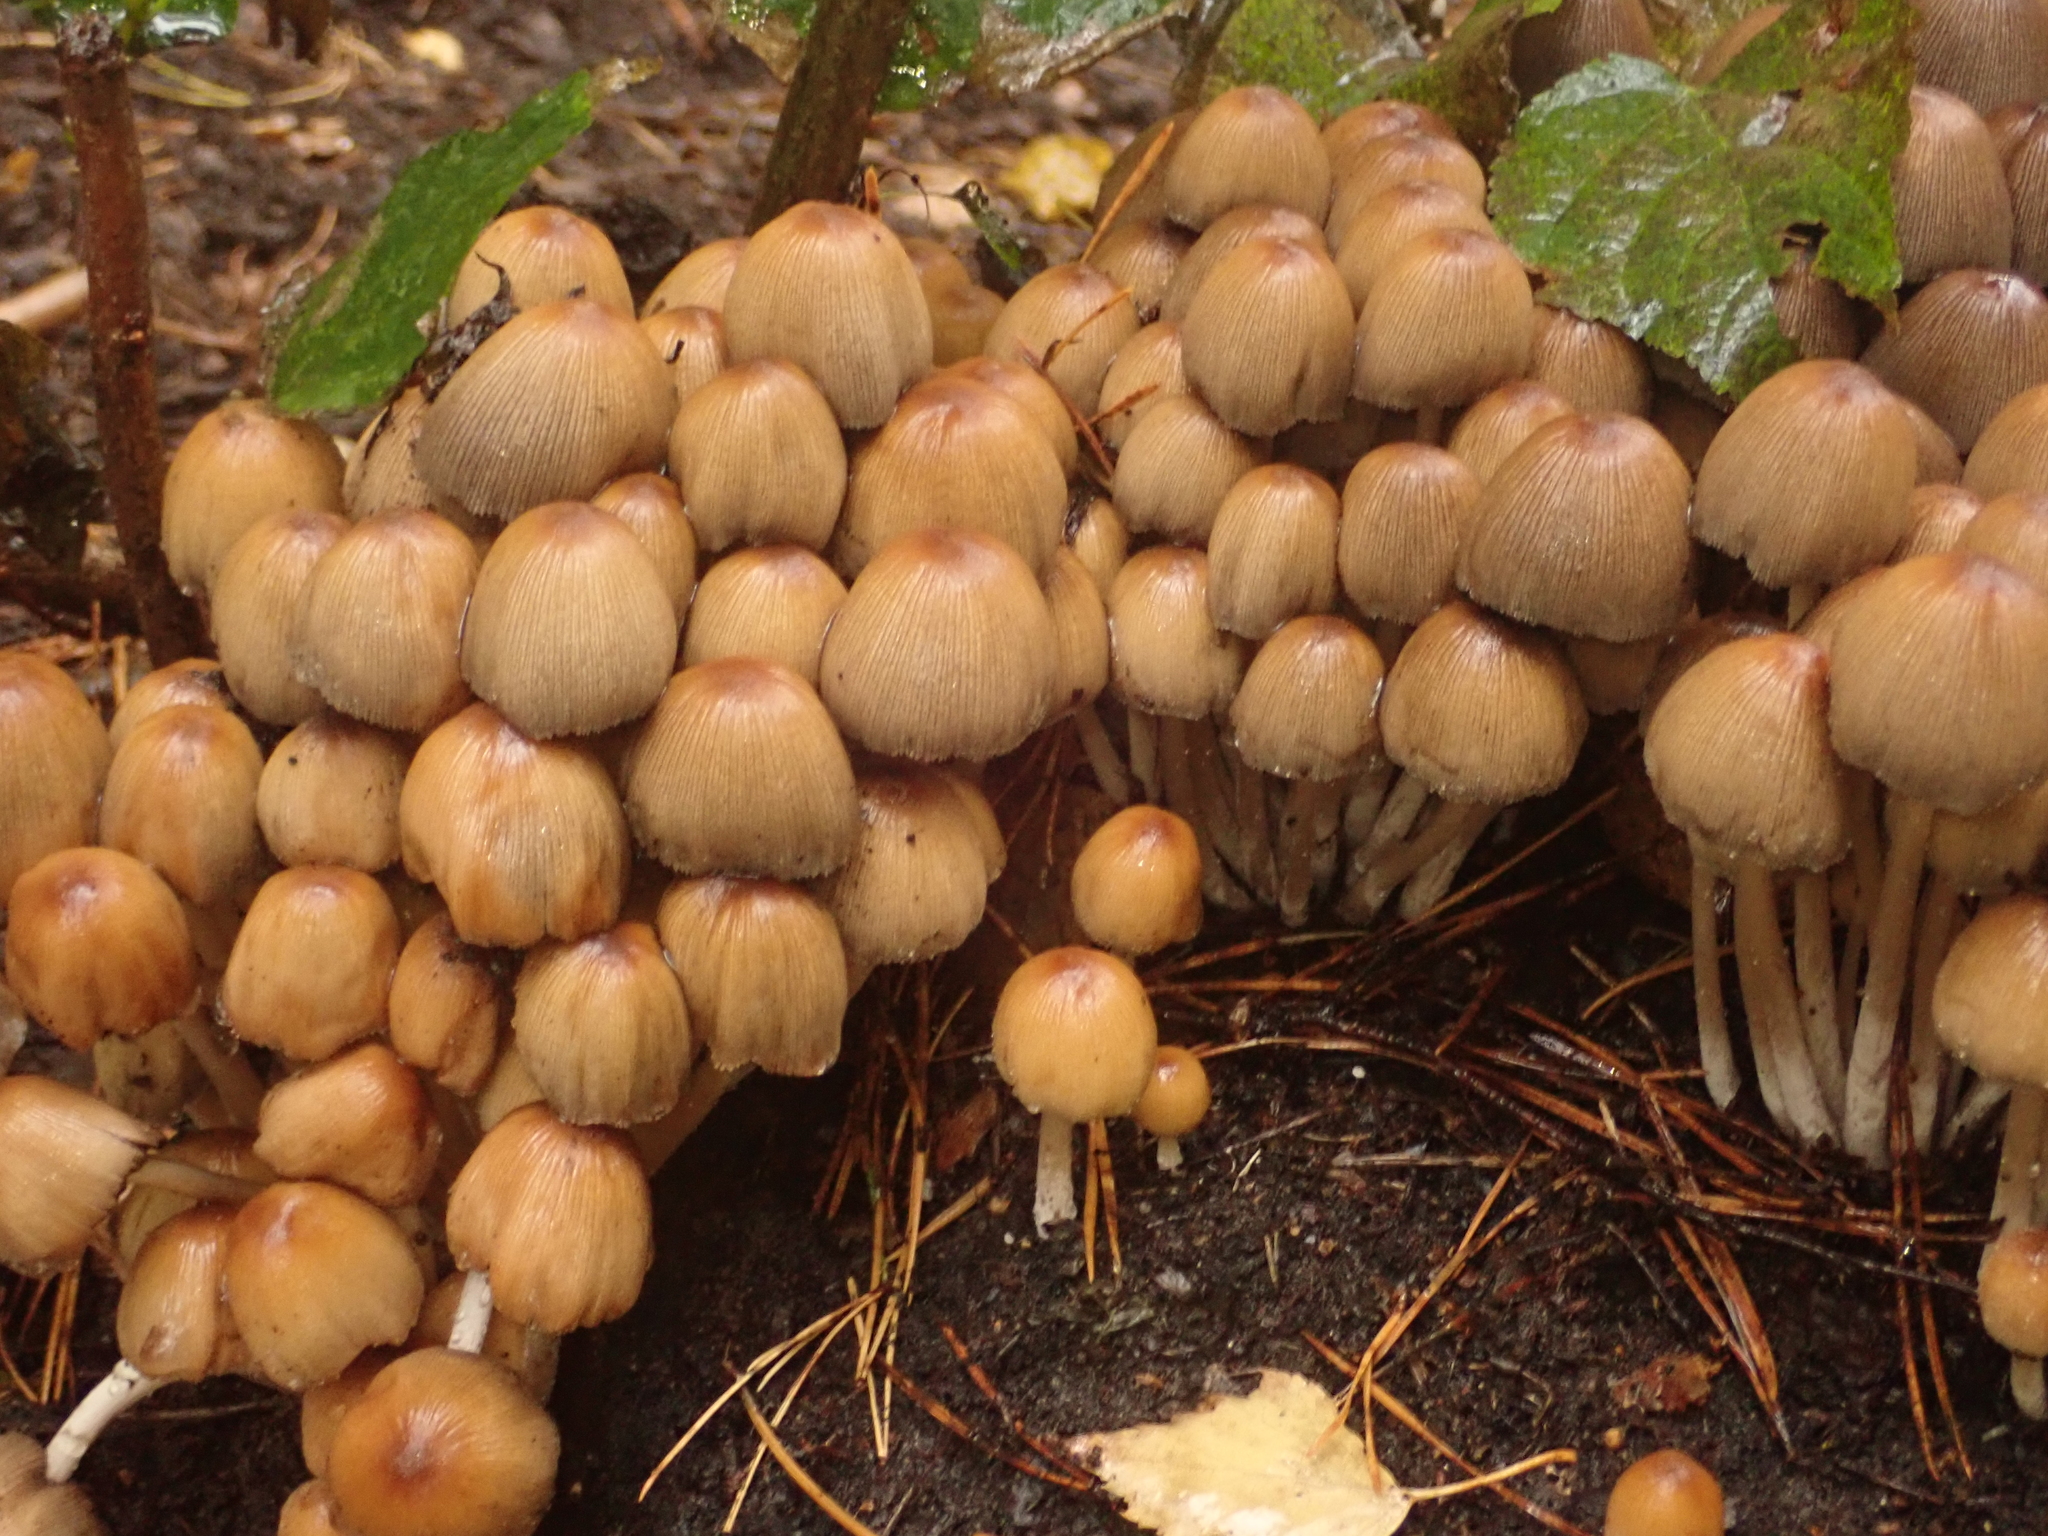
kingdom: Fungi
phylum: Basidiomycota
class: Agaricomycetes
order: Agaricales
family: Psathyrellaceae
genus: Coprinellus
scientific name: Coprinellus micaceus
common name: Glistening ink-cap
